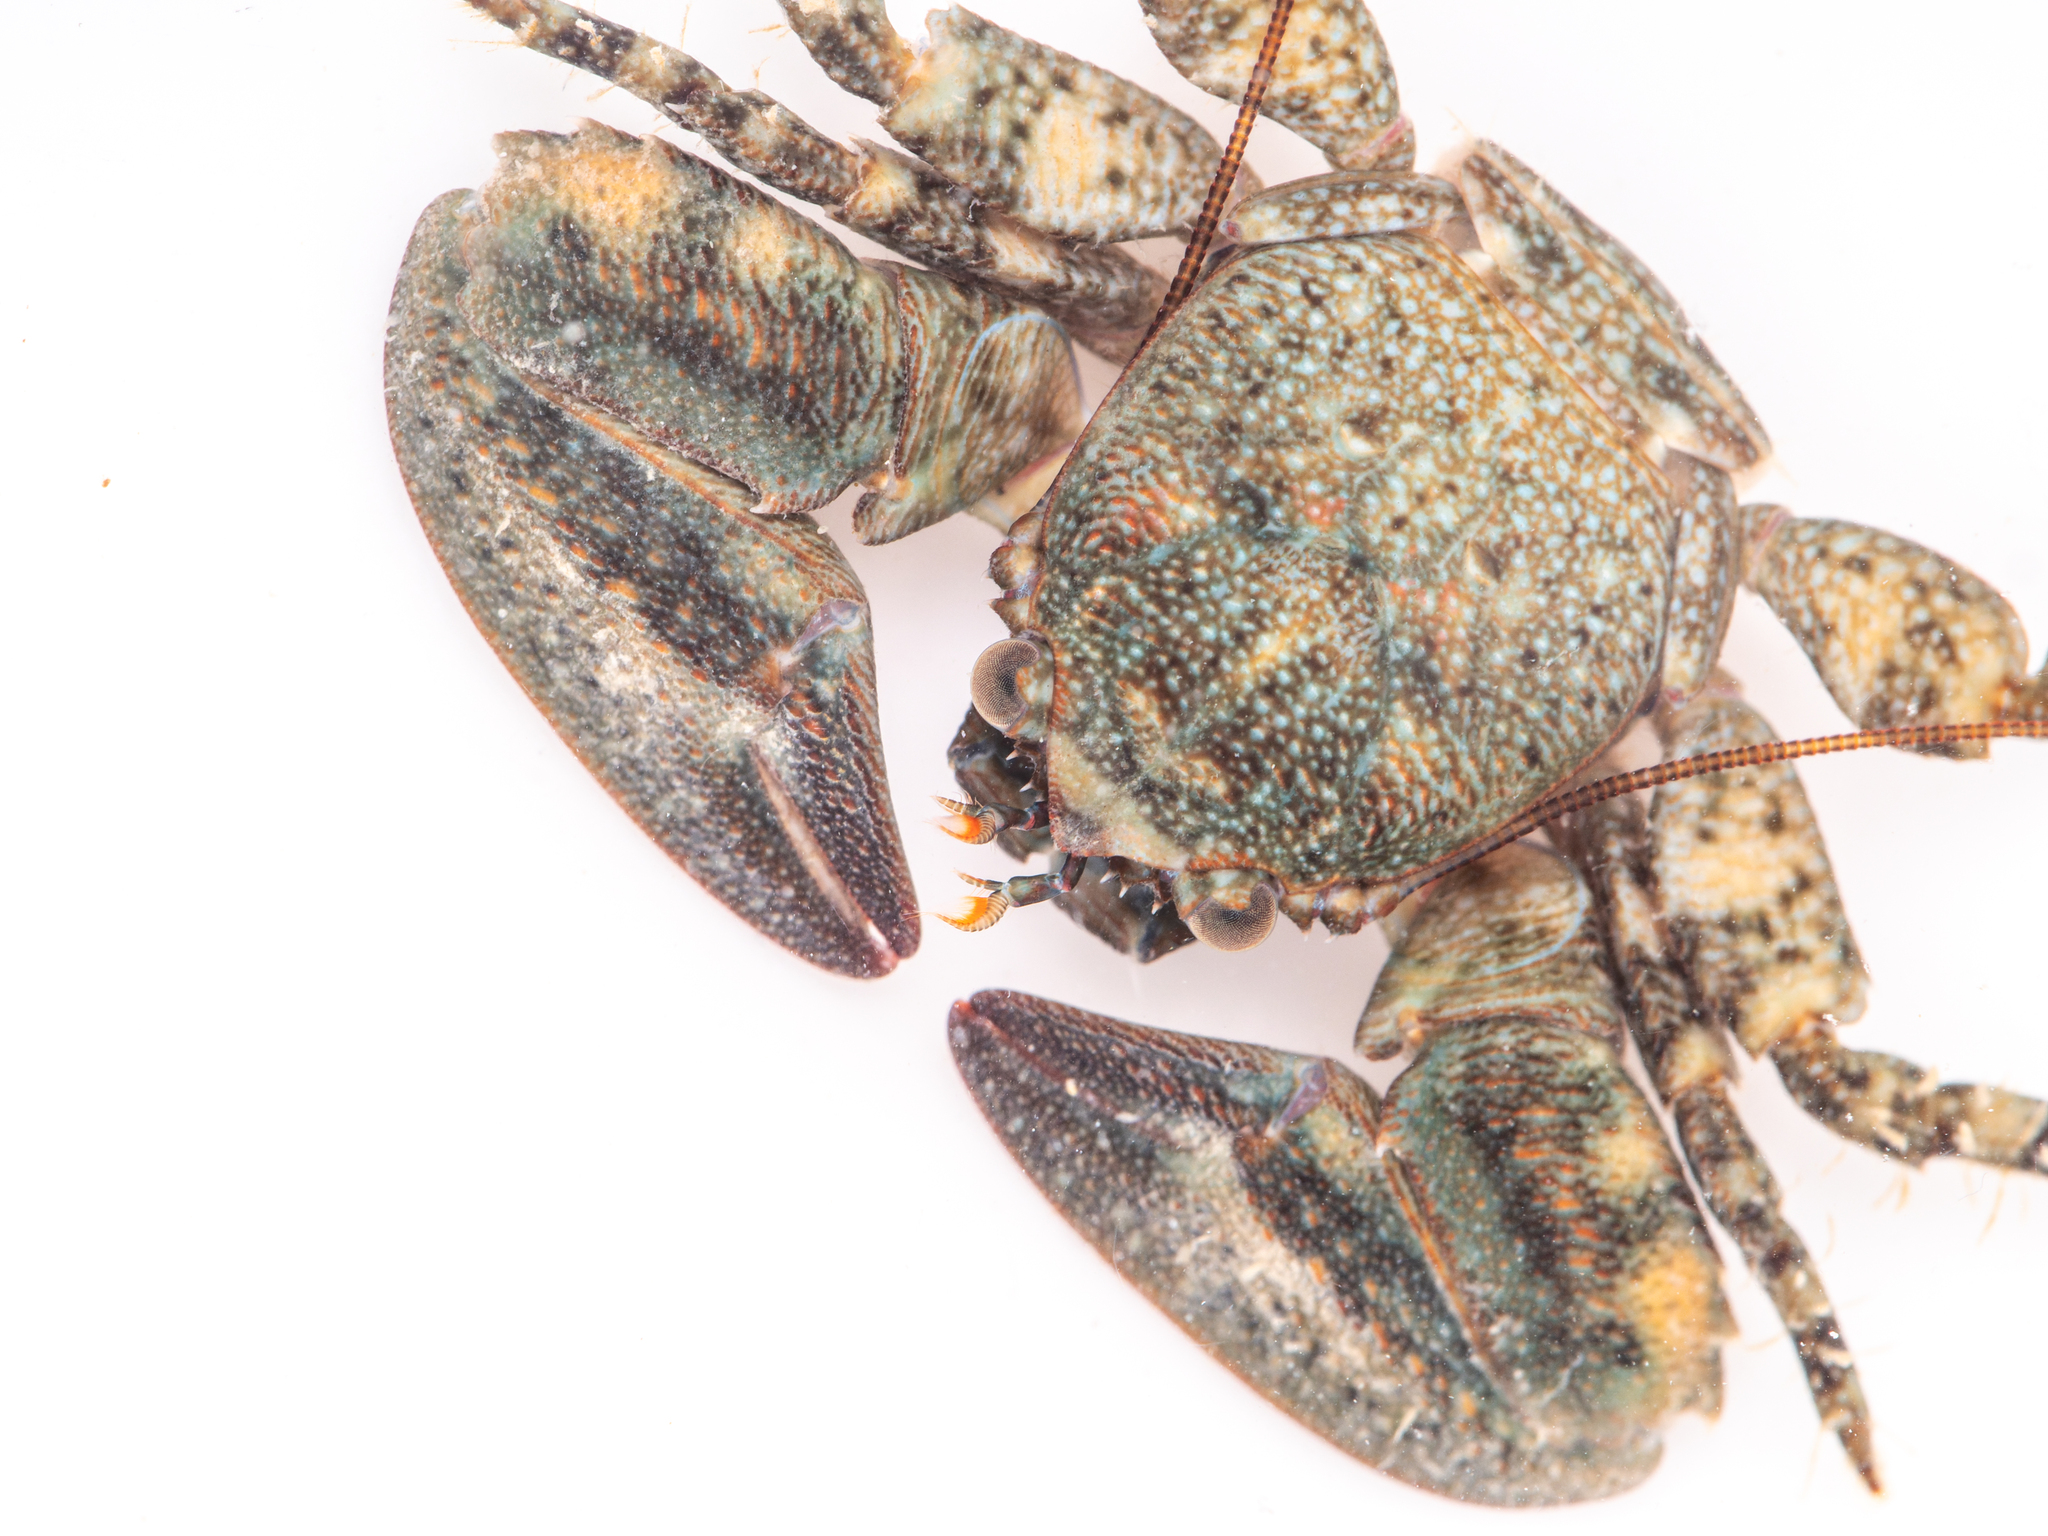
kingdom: Animalia
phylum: Arthropoda
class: Malacostraca
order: Decapoda
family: Porcellanidae
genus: Petrolisthes
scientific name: Petrolisthes elongatus
